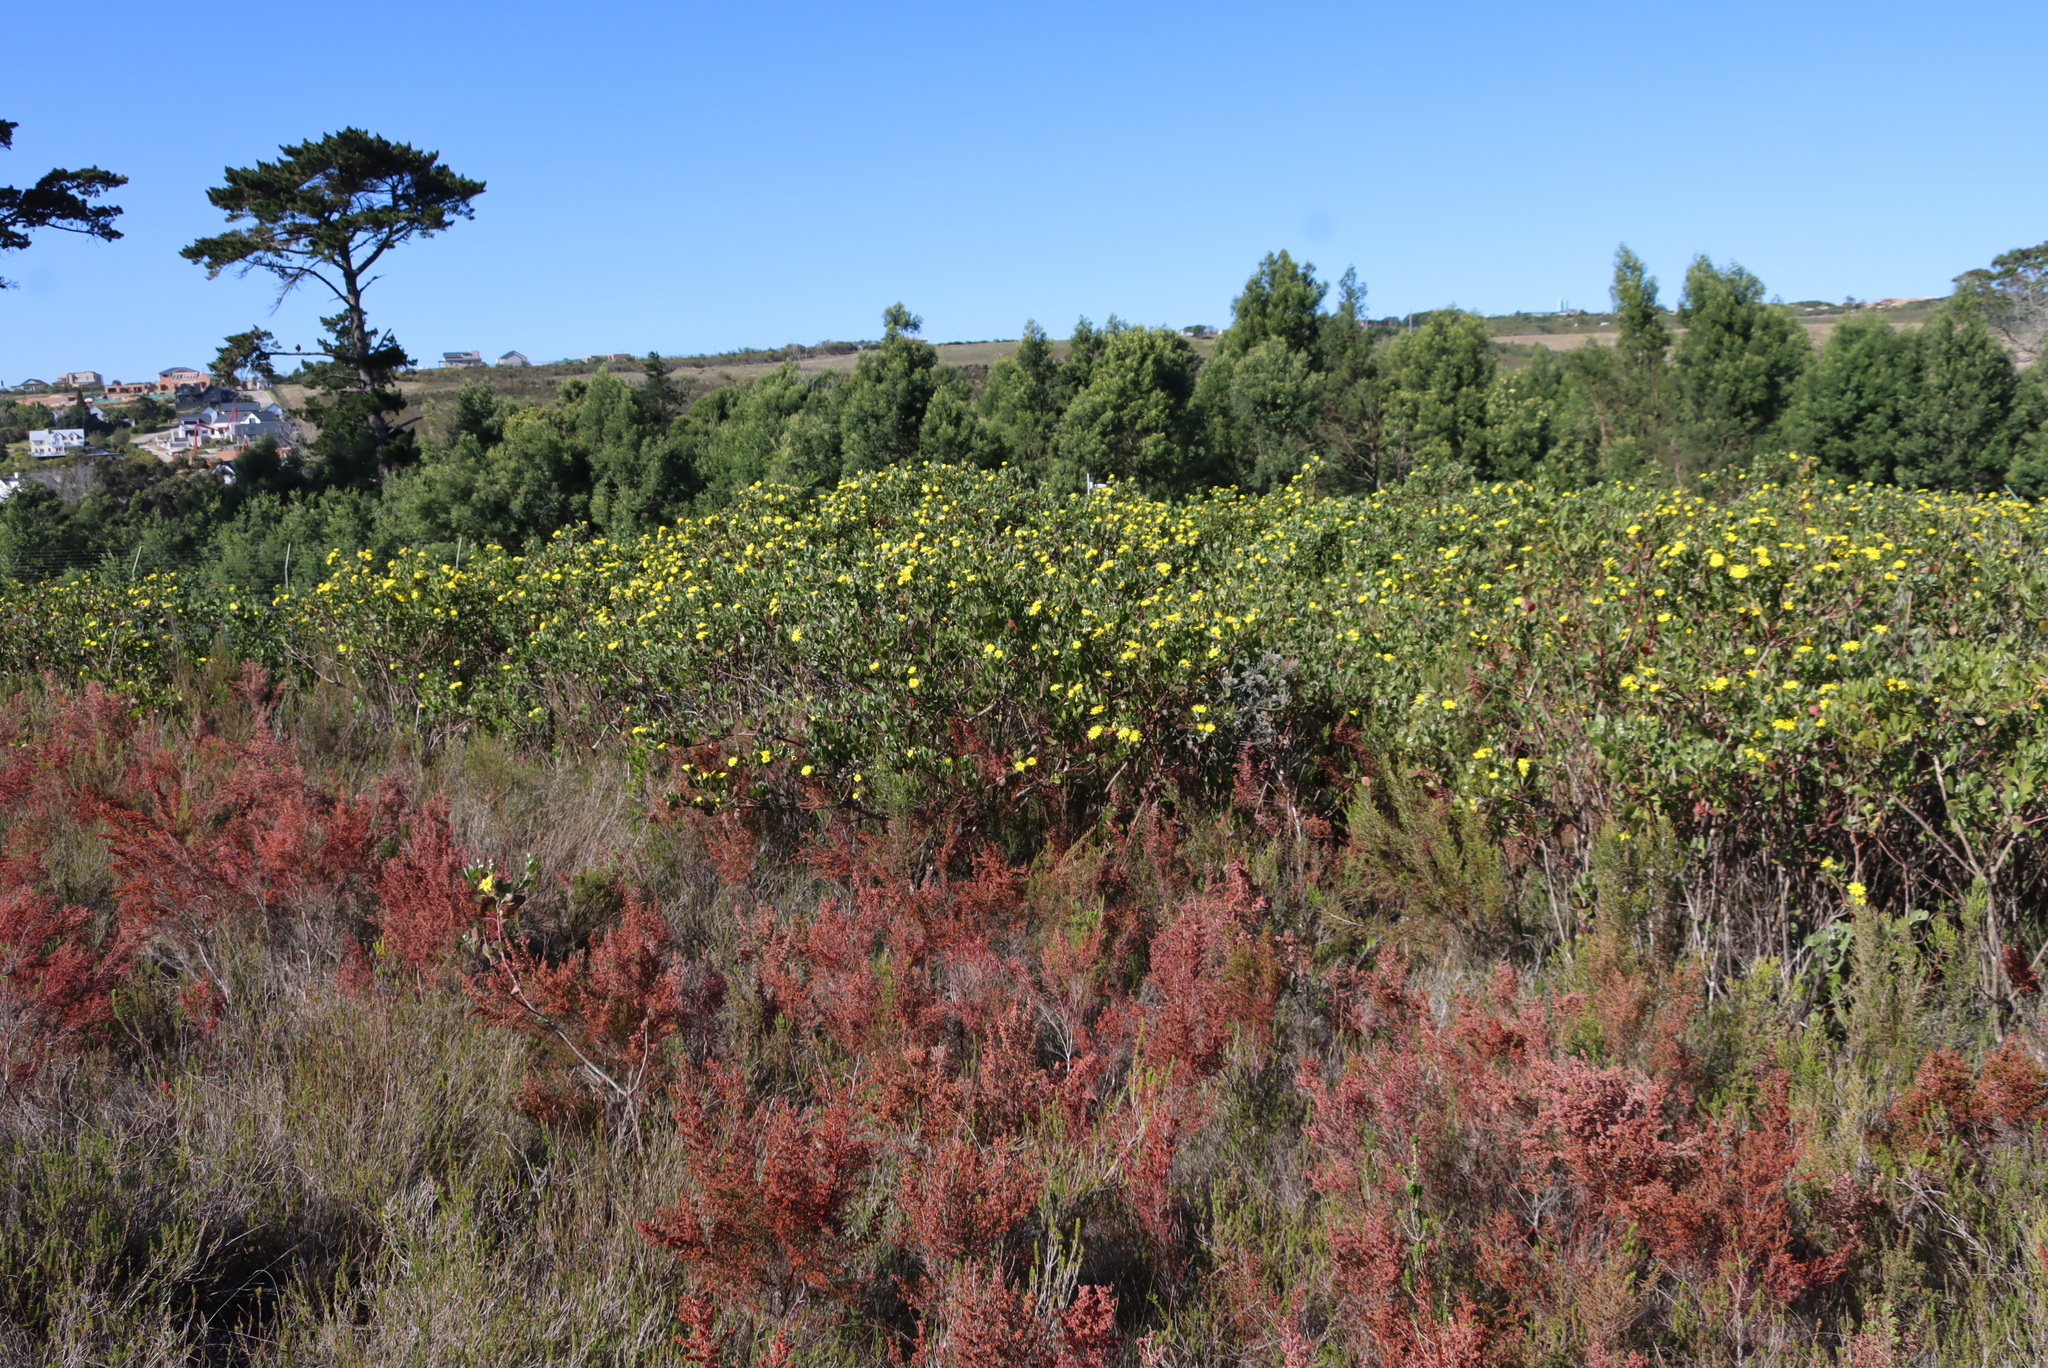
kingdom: Plantae
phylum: Tracheophyta
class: Magnoliopsida
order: Asterales
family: Asteraceae
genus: Osteospermum
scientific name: Osteospermum moniliferum
